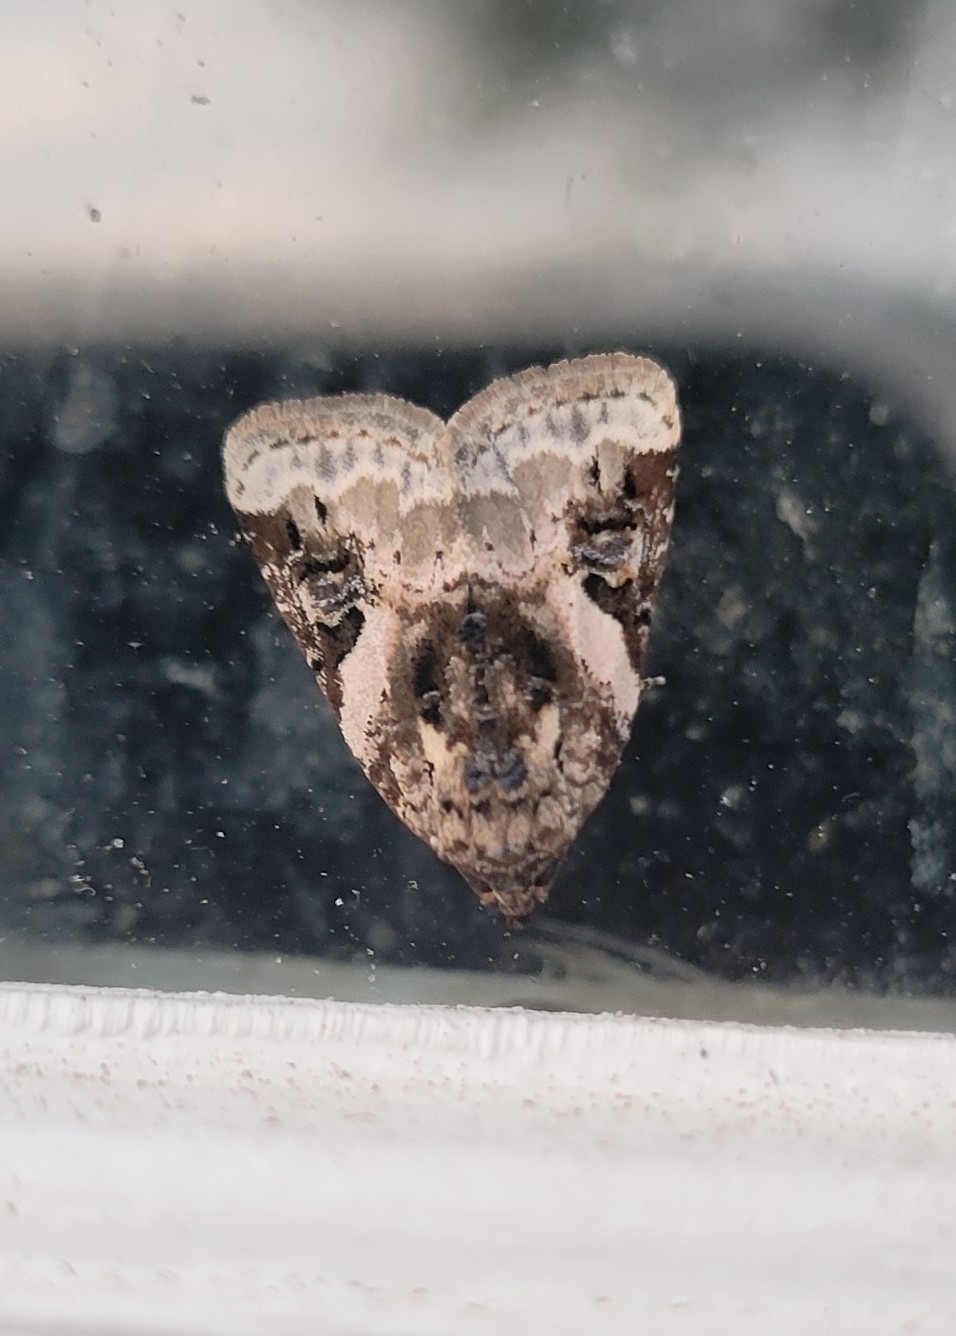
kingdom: Animalia
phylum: Arthropoda
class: Insecta
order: Lepidoptera
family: Noctuidae
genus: Pseudeustrotia
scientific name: Pseudeustrotia carneola
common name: Pink-barred lithacodia moth
